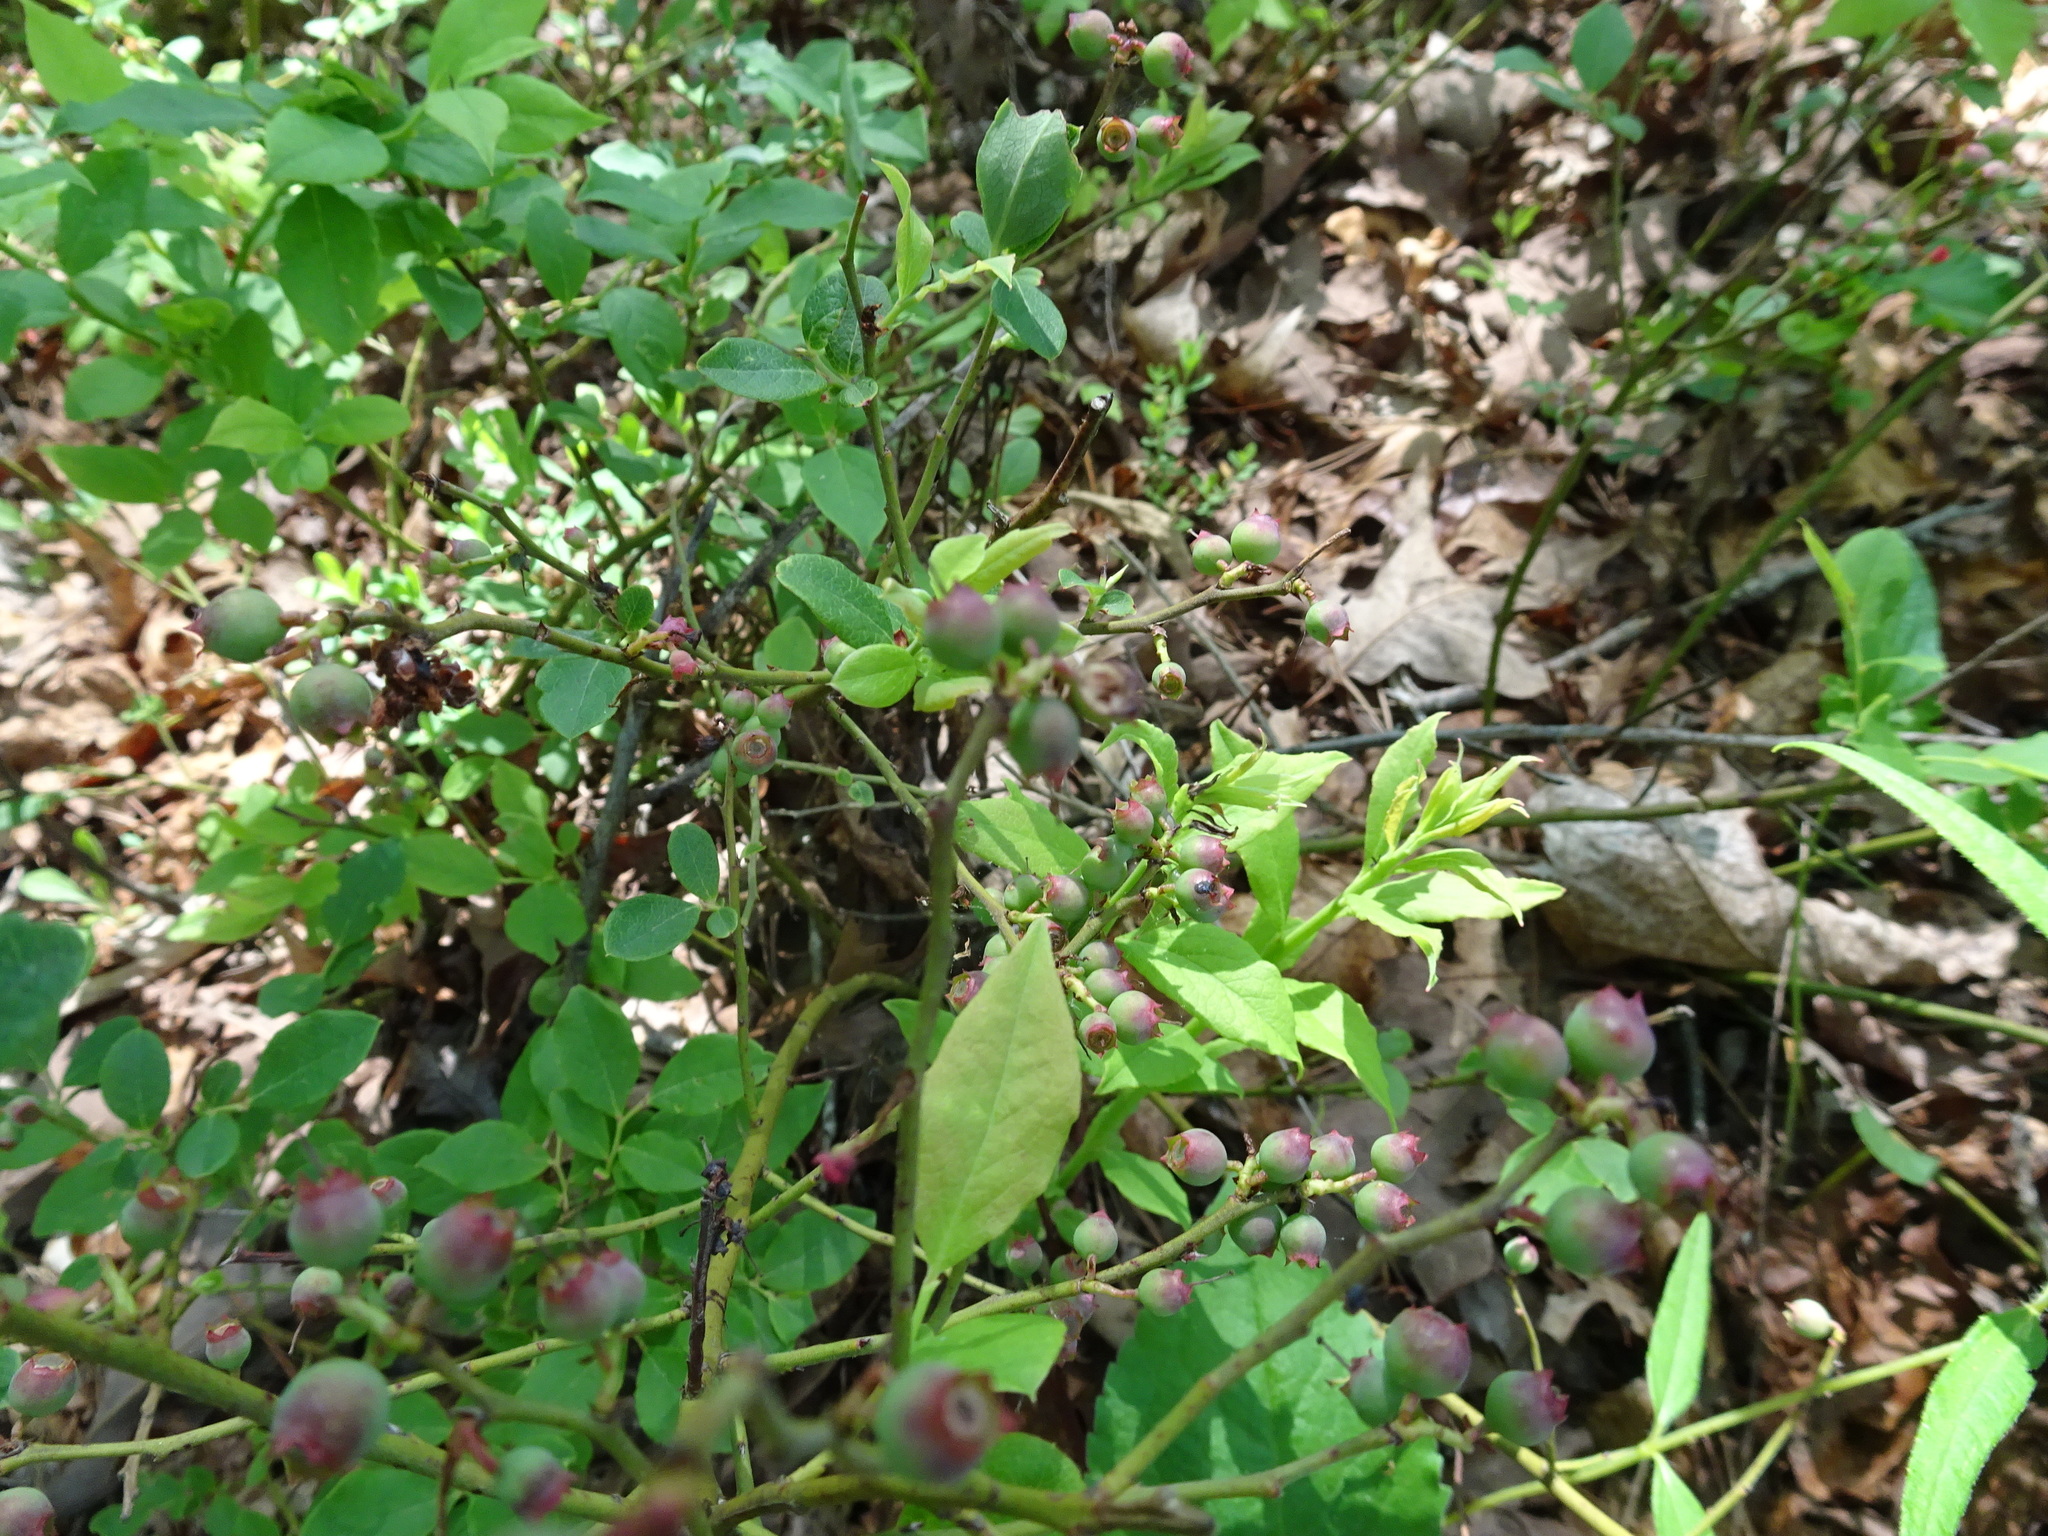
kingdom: Plantae
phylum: Tracheophyta
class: Magnoliopsida
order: Ericales
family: Ericaceae
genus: Vaccinium
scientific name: Vaccinium pallidum
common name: Blue ridge blueberry
